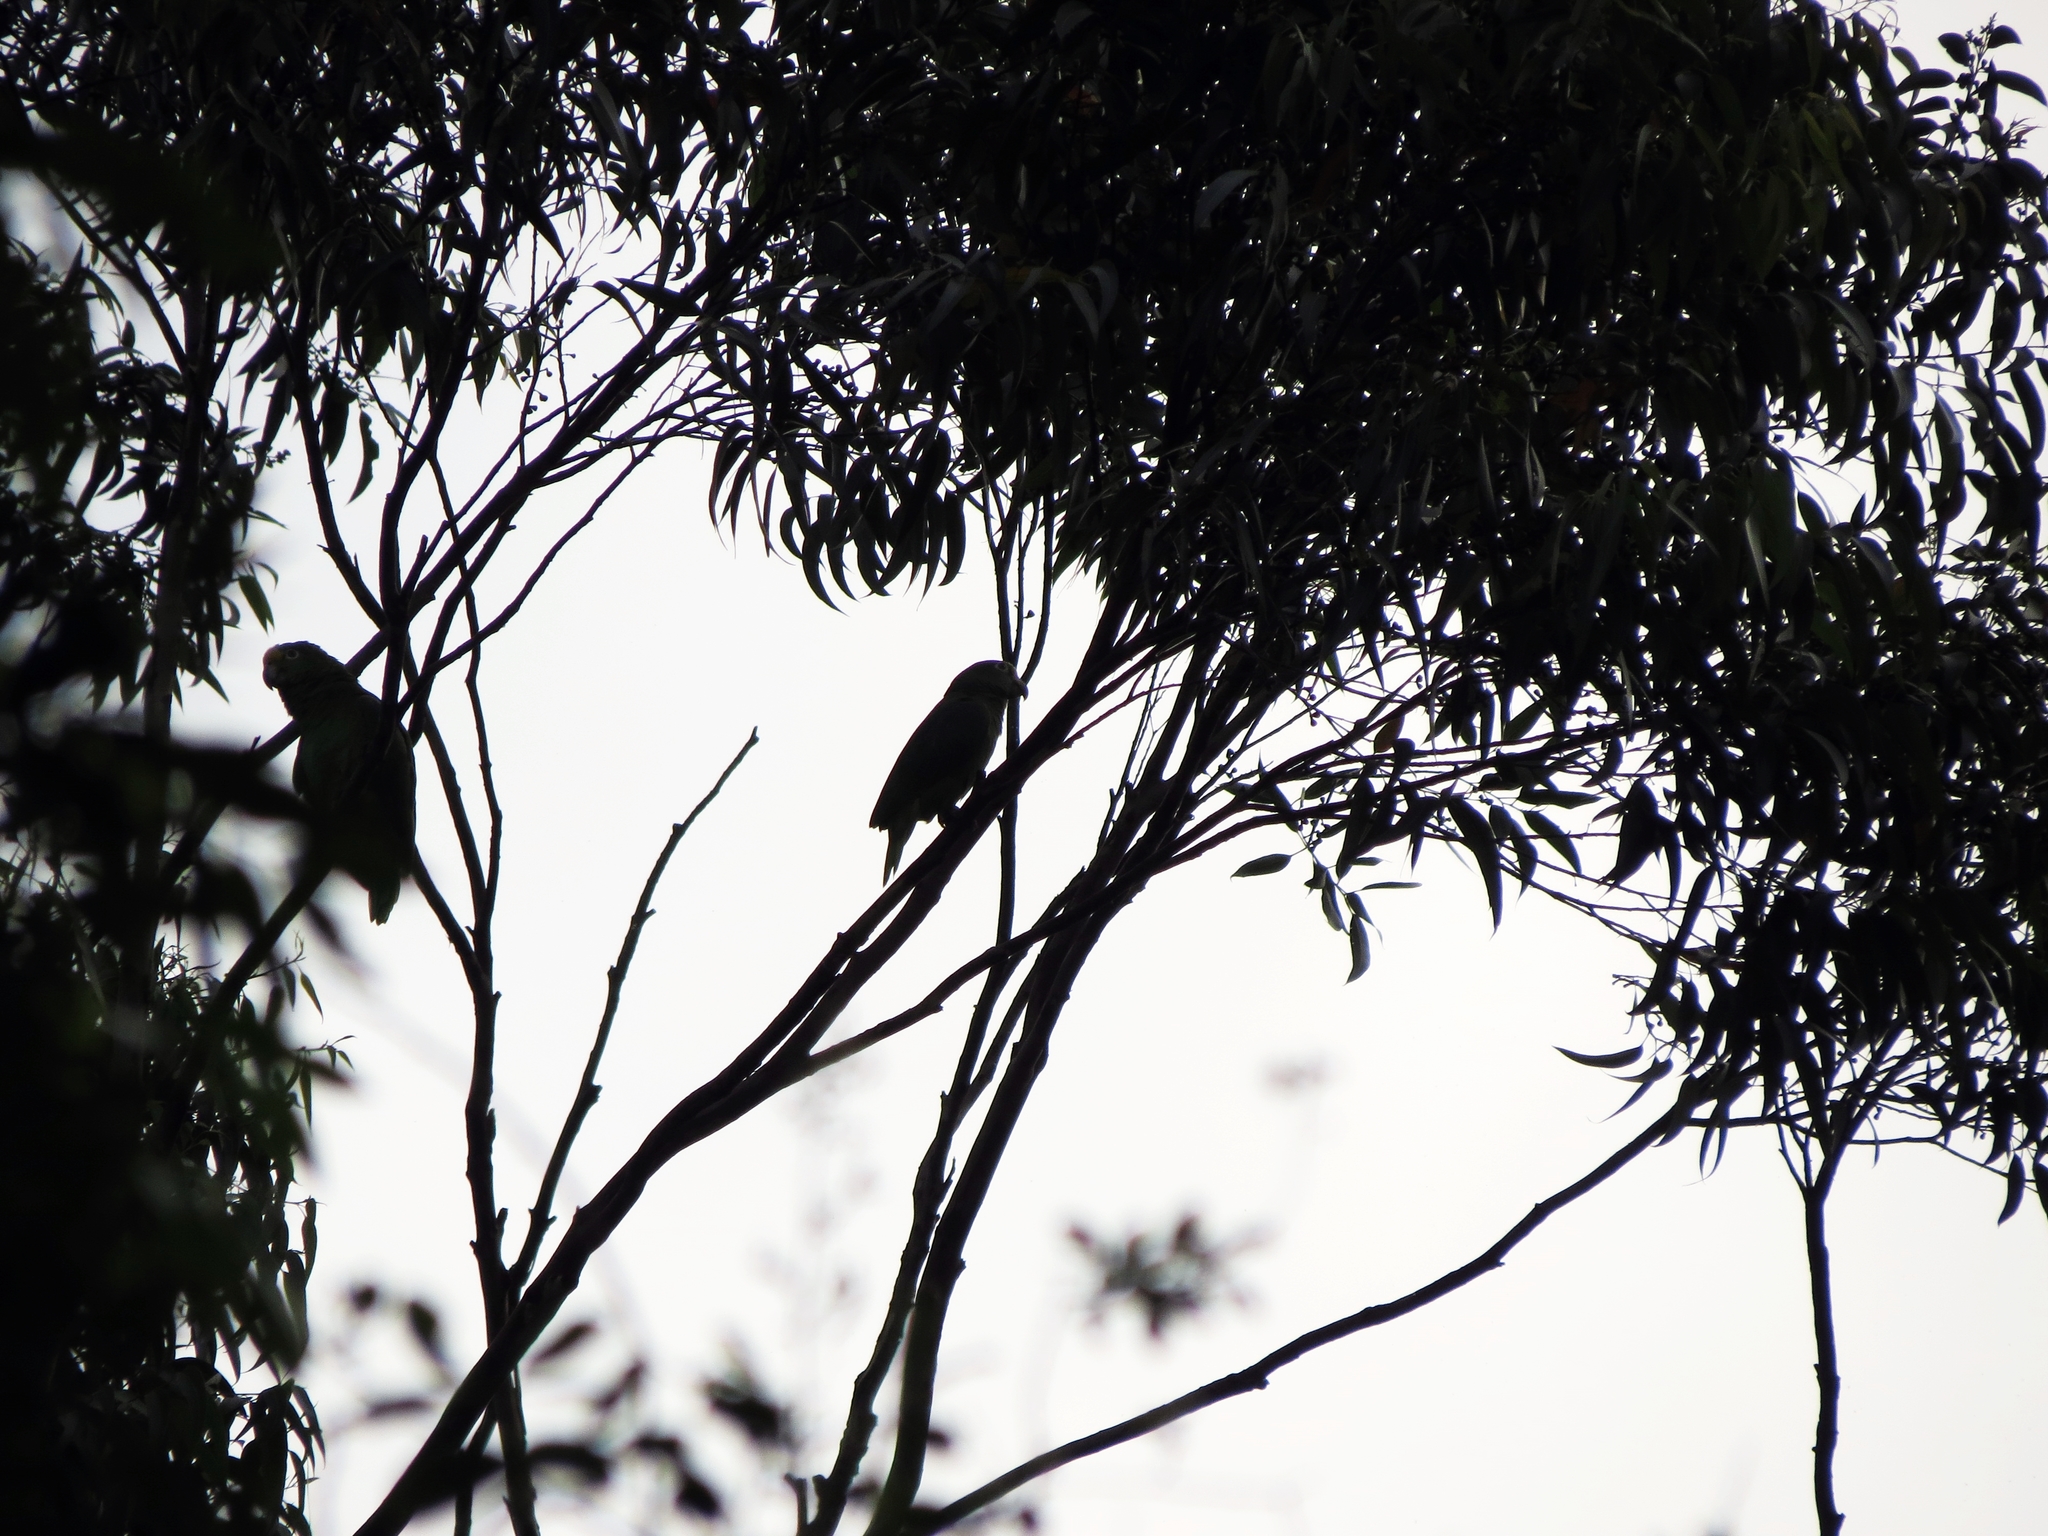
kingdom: Animalia
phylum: Chordata
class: Aves
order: Psittaciformes
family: Psittacidae
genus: Amazona
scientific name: Amazona ochrocephala
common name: Yellow-crowned amazon
